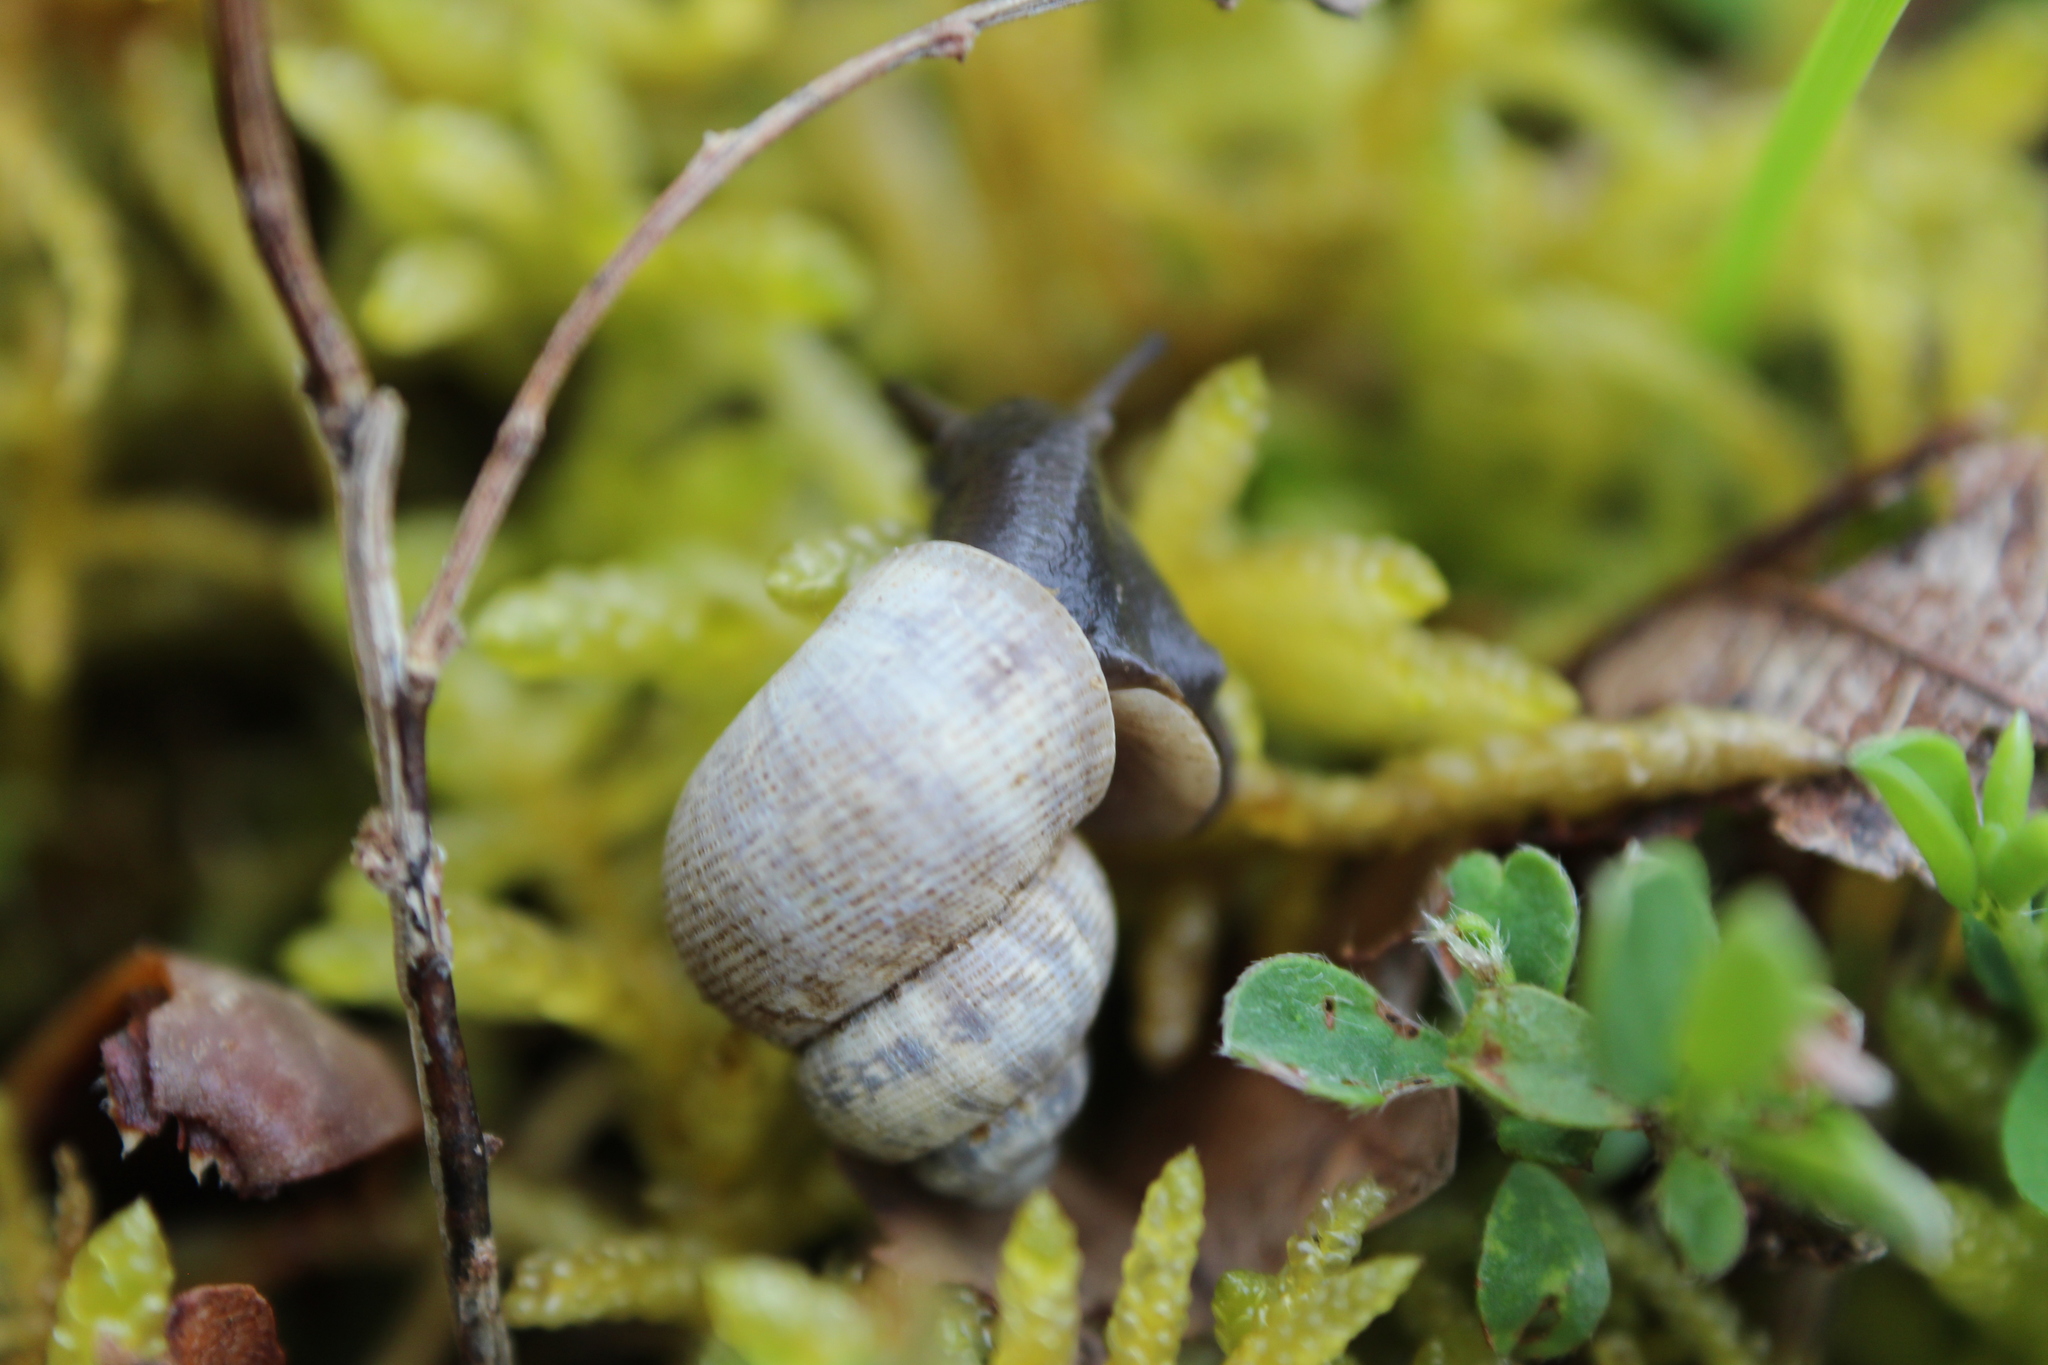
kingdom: Animalia
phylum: Mollusca
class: Gastropoda
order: Littorinimorpha
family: Pomatiidae
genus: Pomatias
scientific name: Pomatias elegans
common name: Red-mouthed snail
